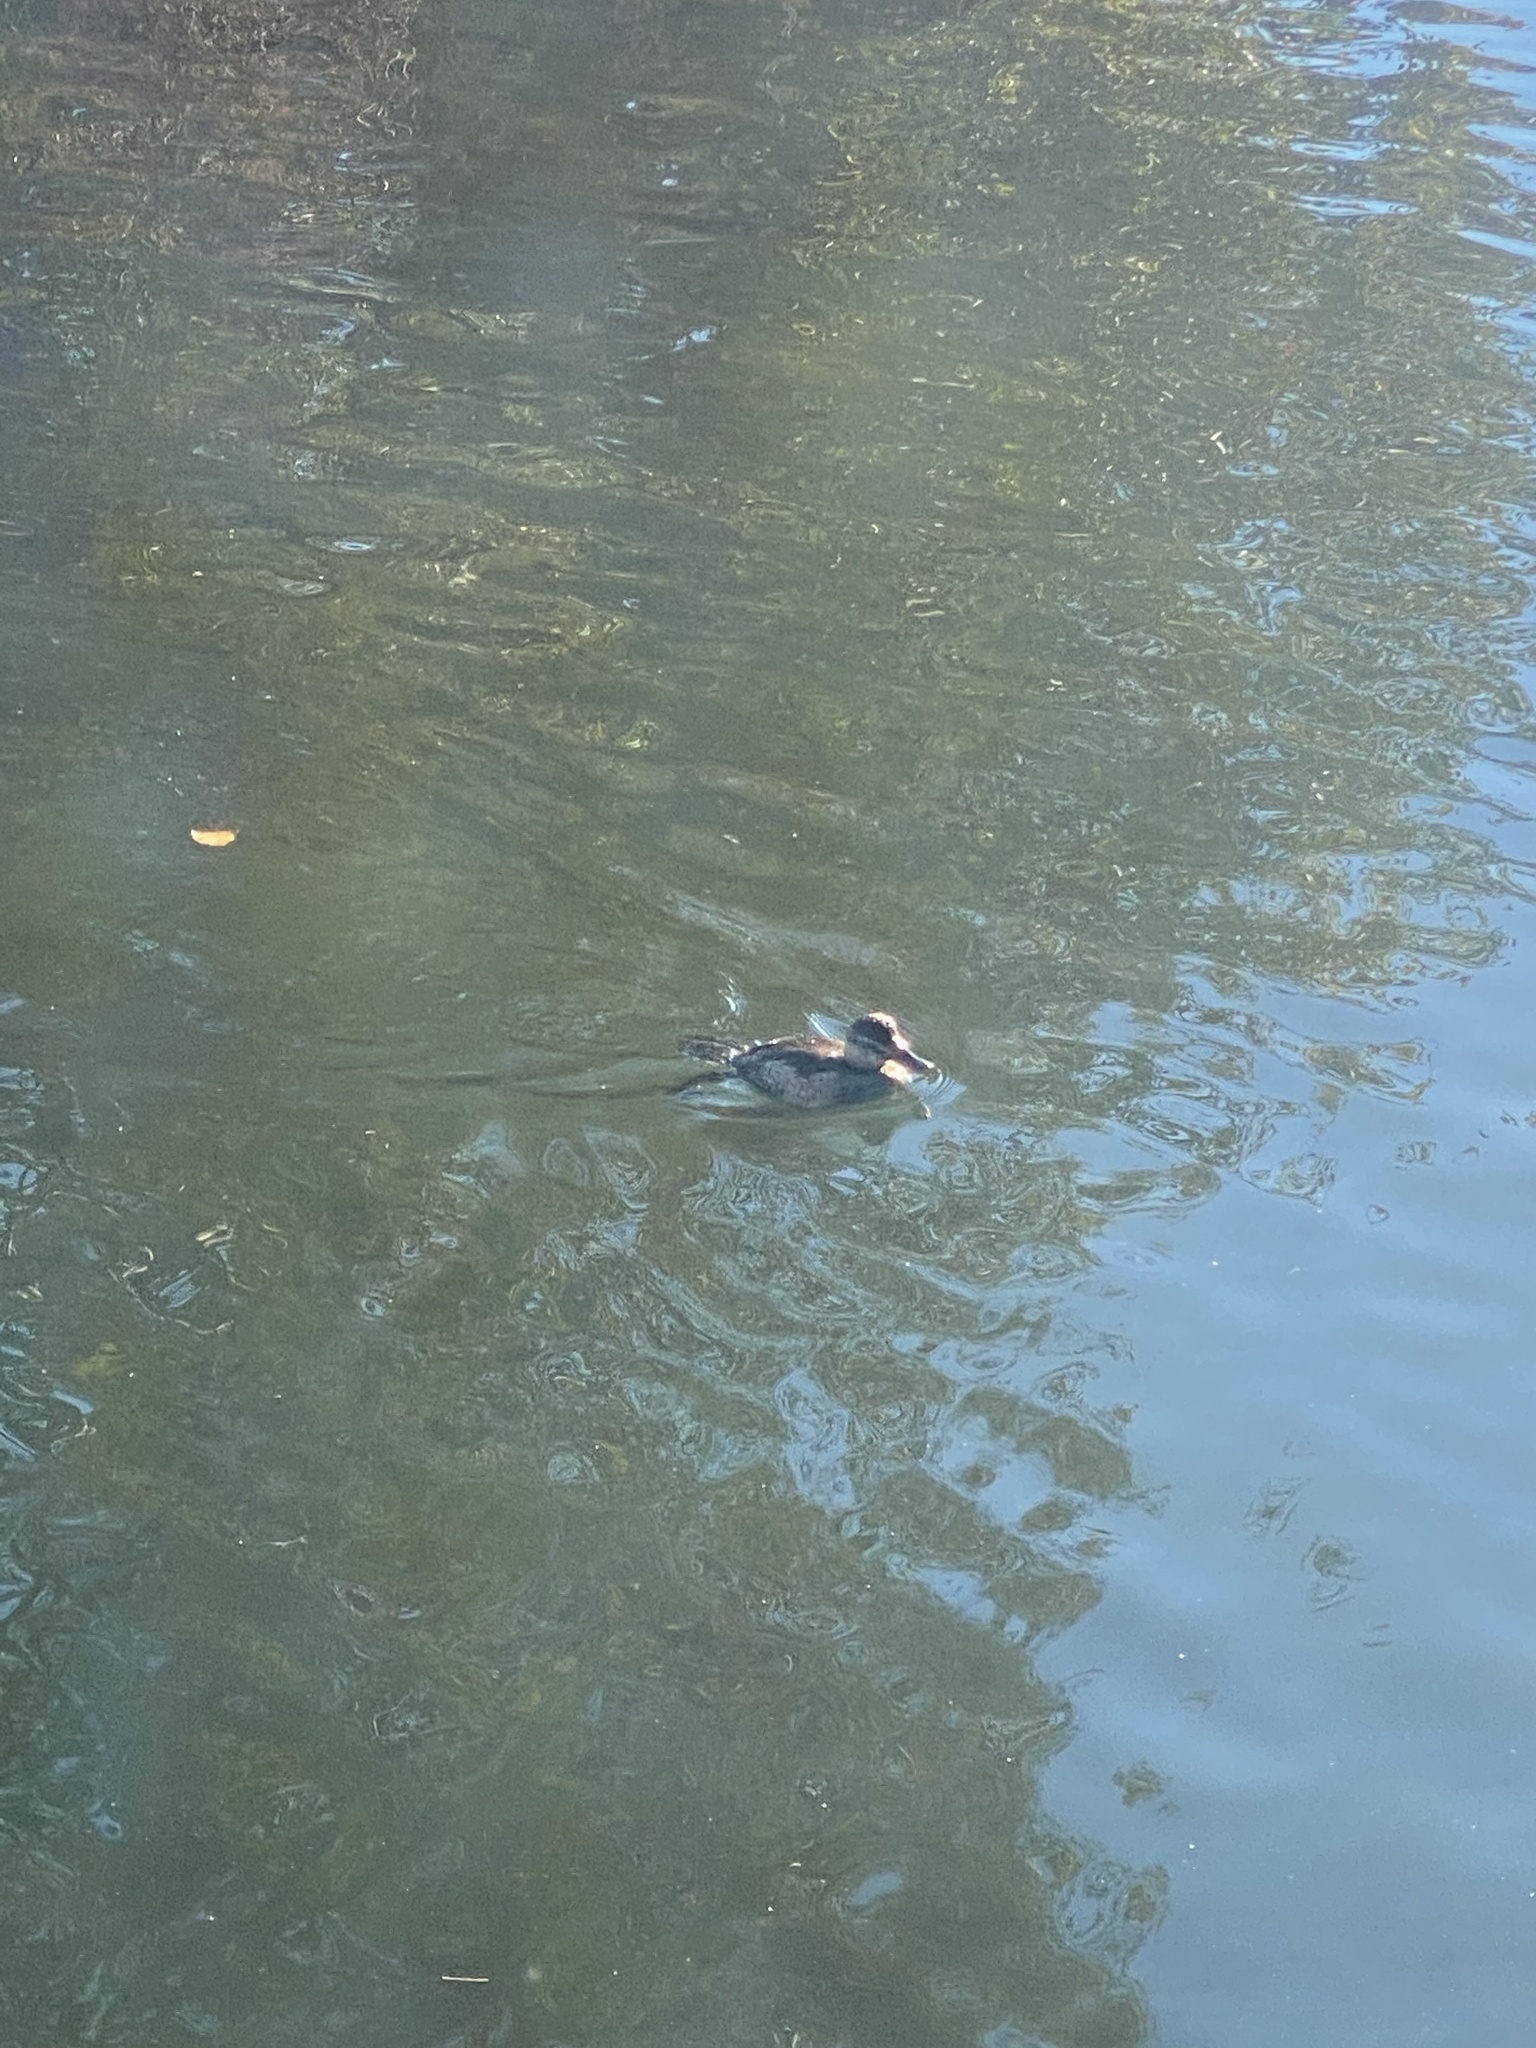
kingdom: Animalia
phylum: Chordata
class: Aves
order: Anseriformes
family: Anatidae
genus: Oxyura
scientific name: Oxyura jamaicensis
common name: Ruddy duck
